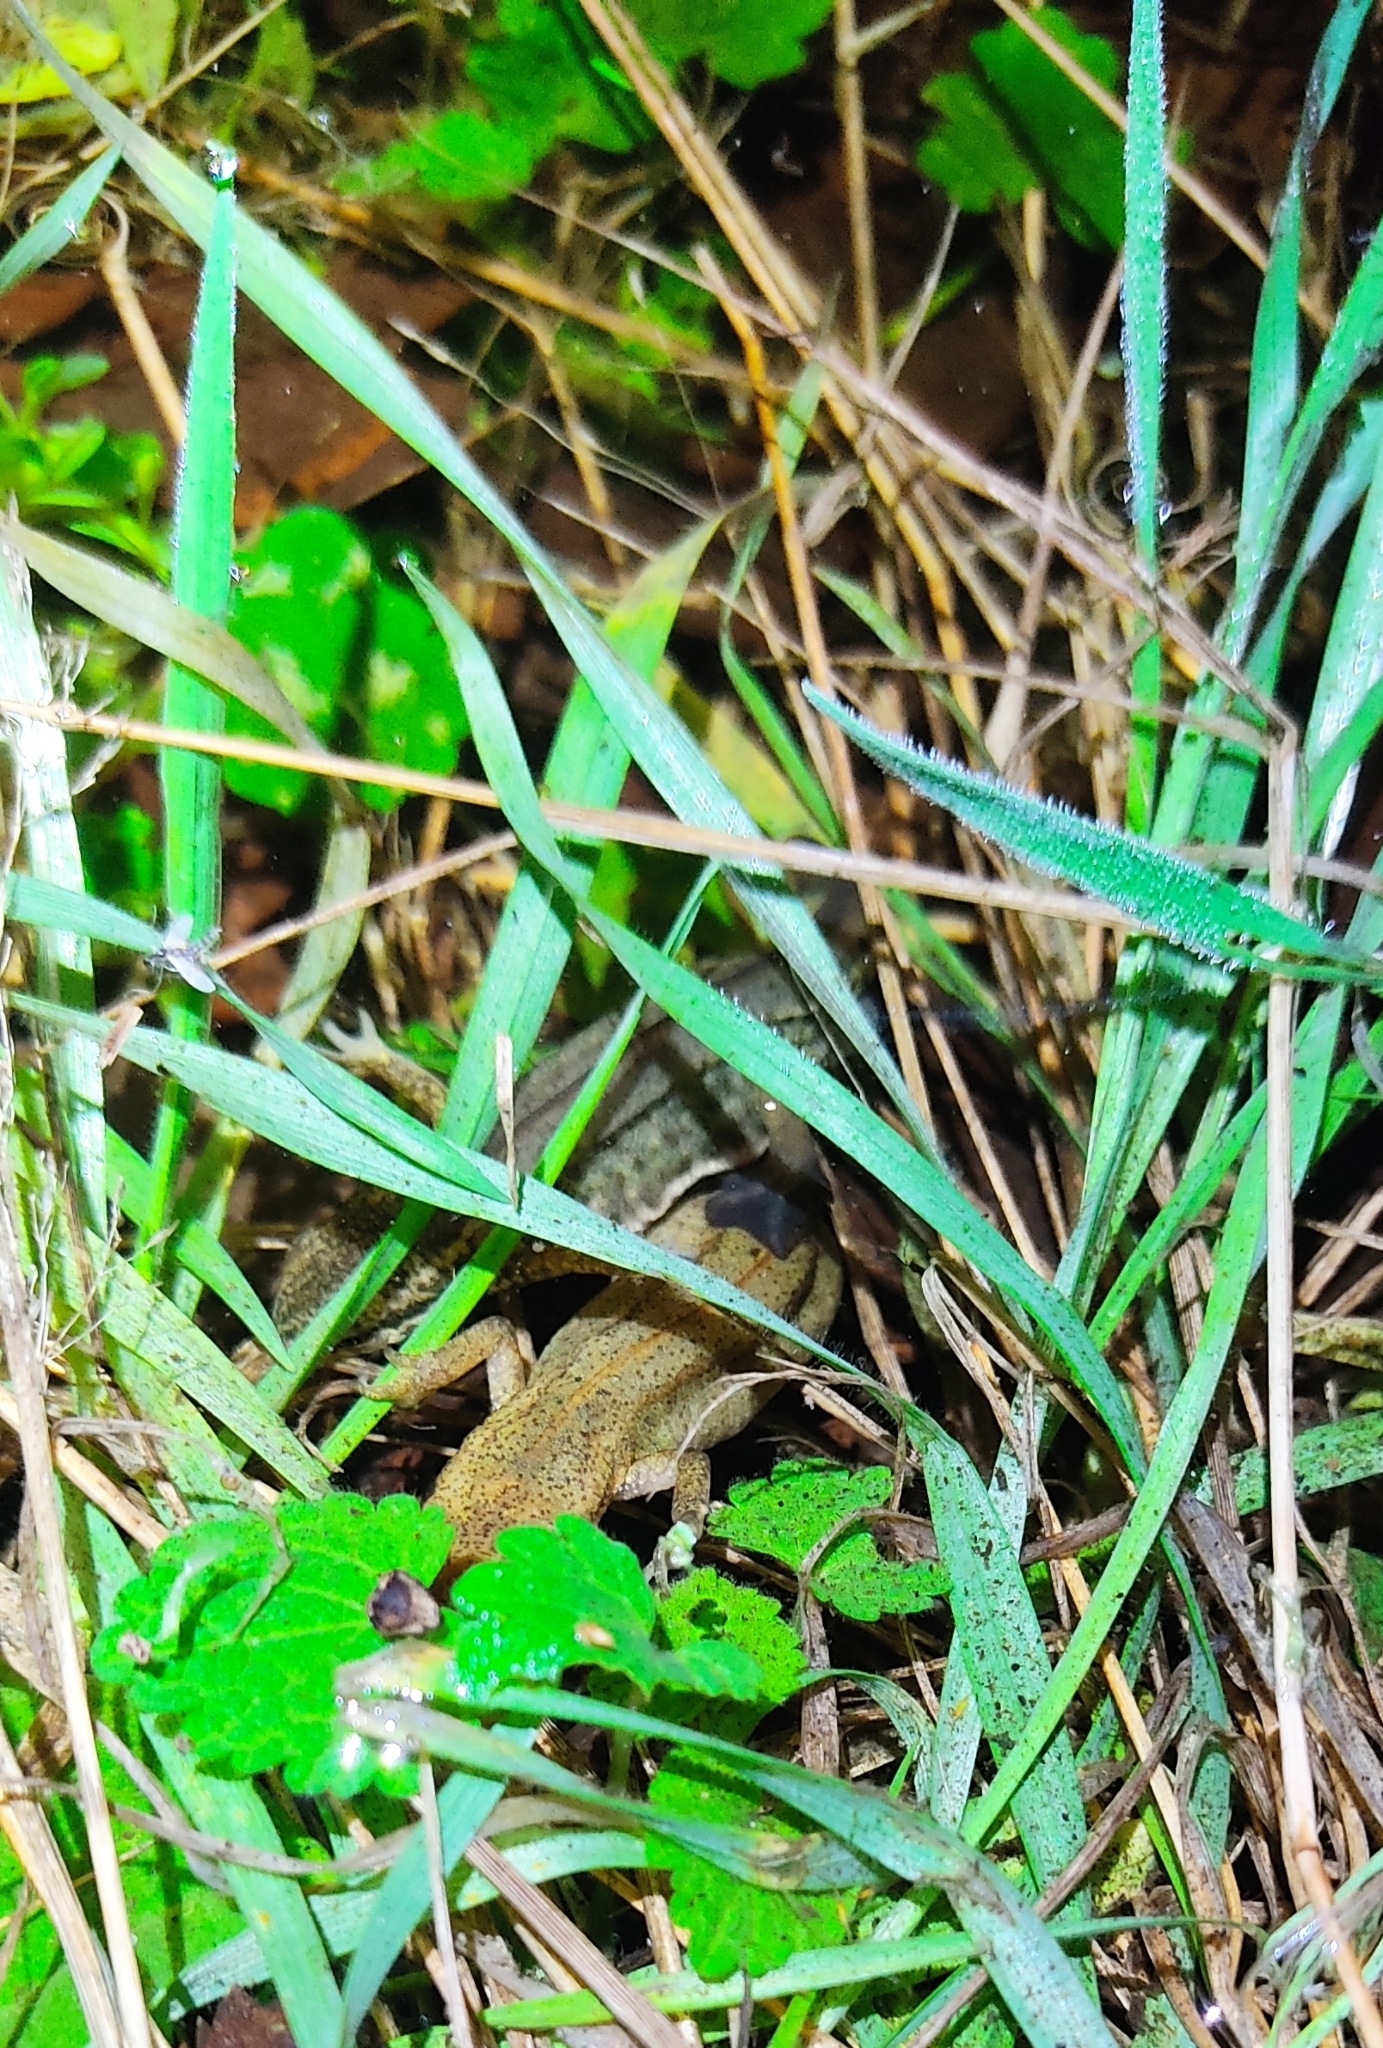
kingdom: Animalia
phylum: Chordata
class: Amphibia
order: Caudata
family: Salamandridae
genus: Lissotriton
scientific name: Lissotriton helveticus
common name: Palmate newt
